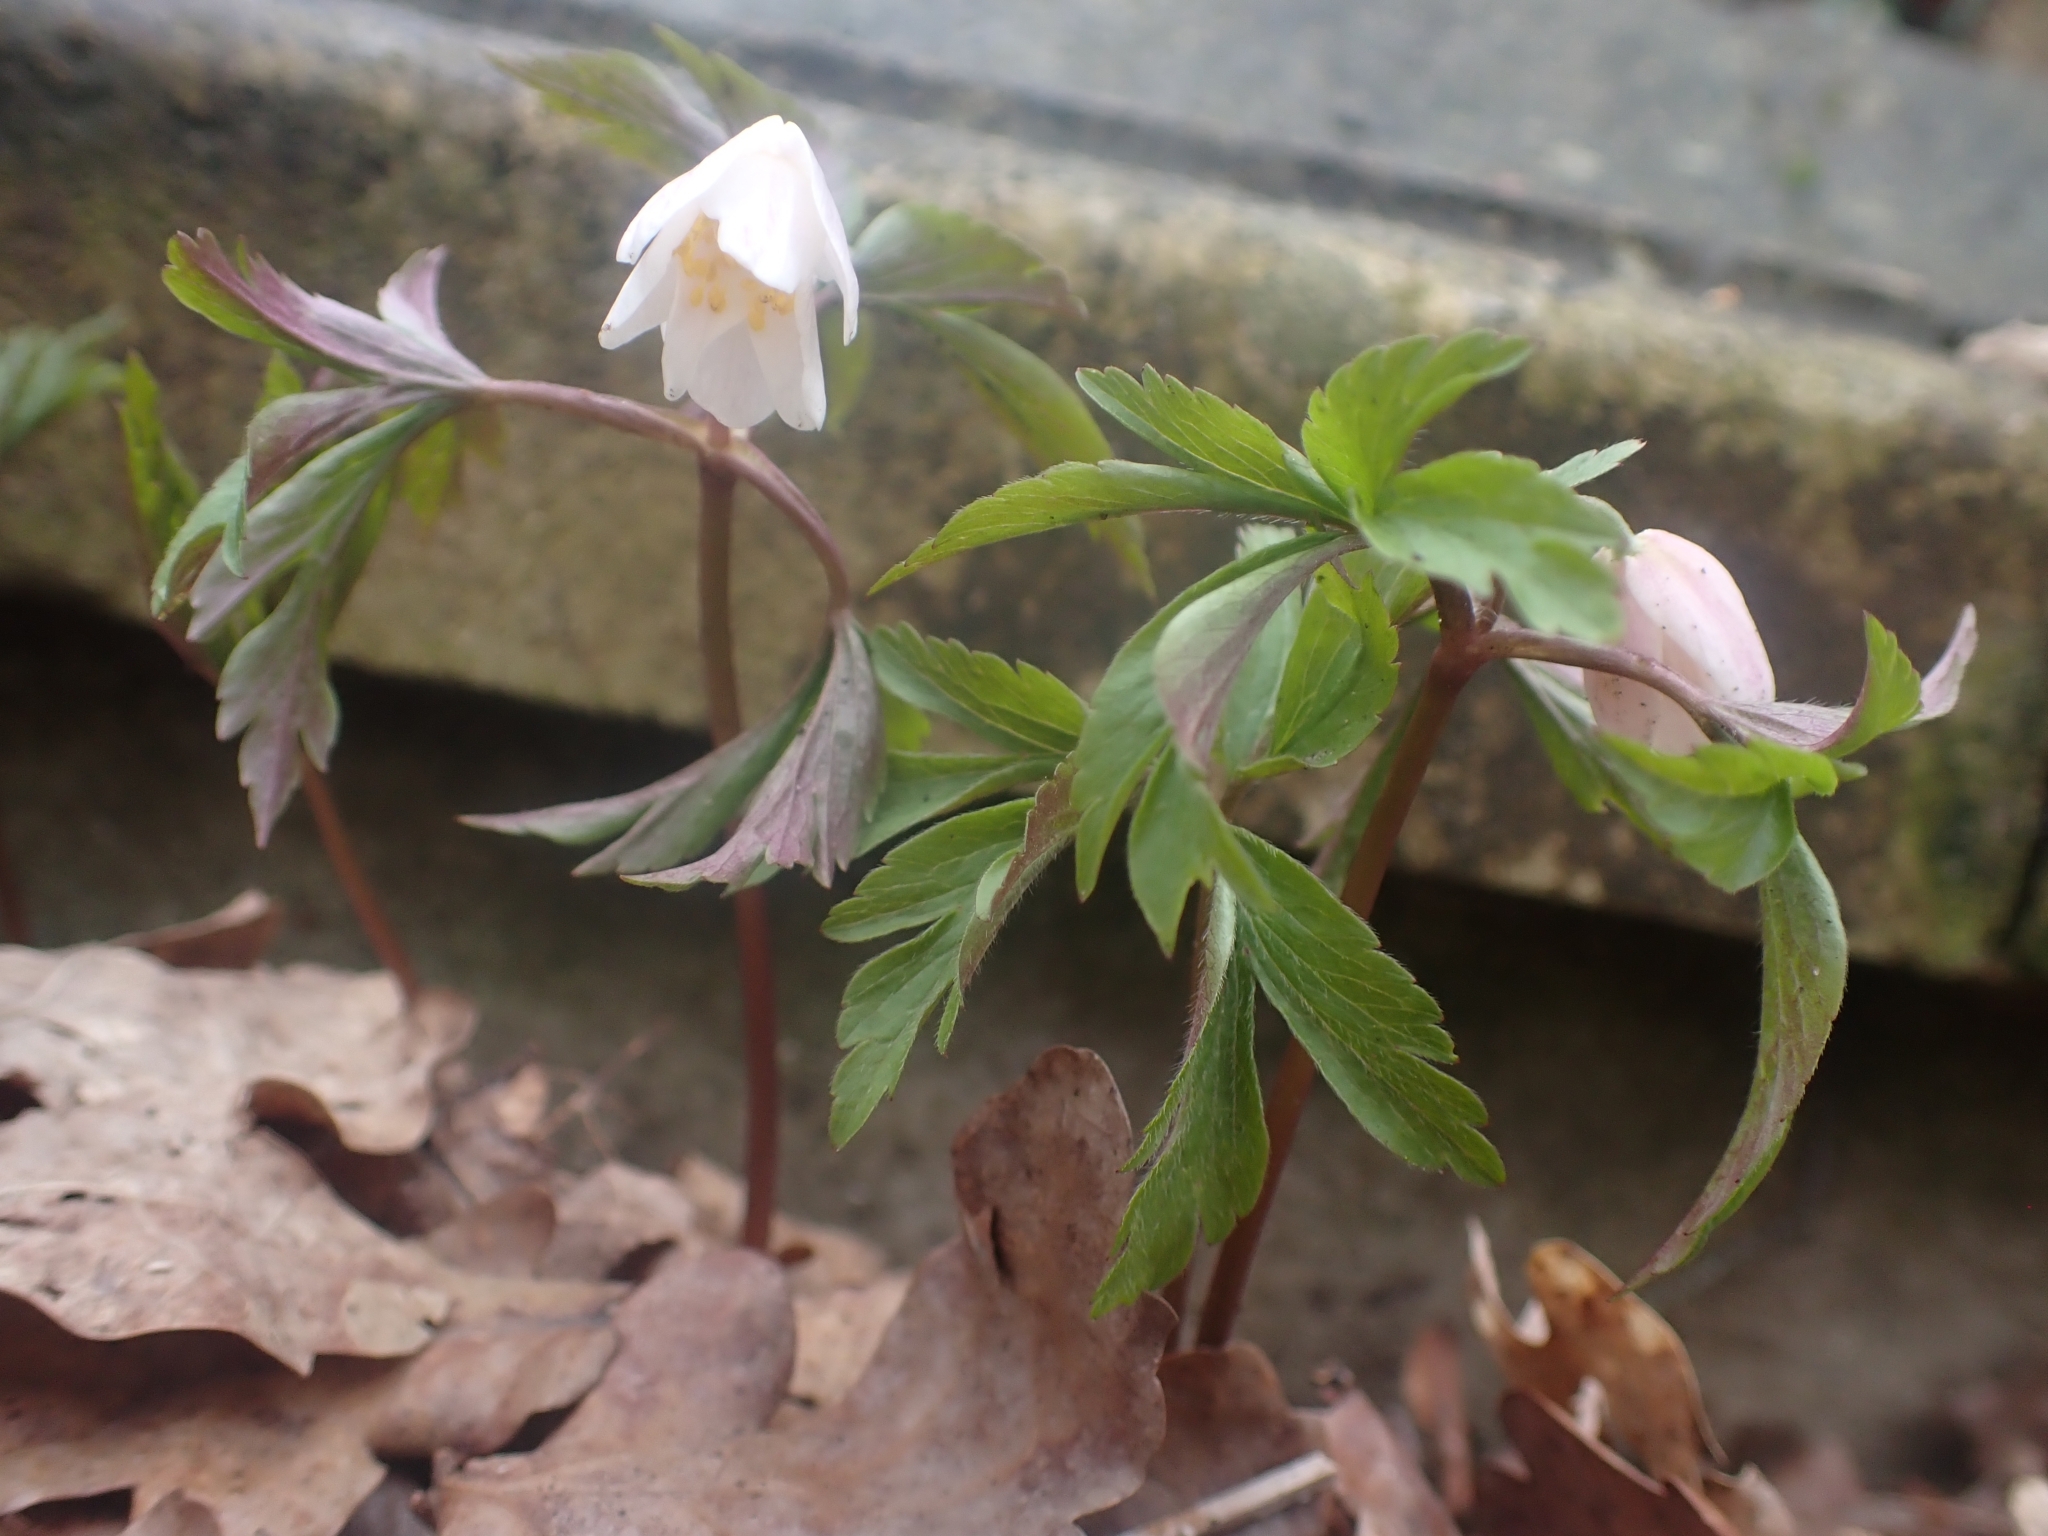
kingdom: Plantae
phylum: Tracheophyta
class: Magnoliopsida
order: Ranunculales
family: Ranunculaceae
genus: Anemone
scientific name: Anemone nemorosa
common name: Wood anemone
